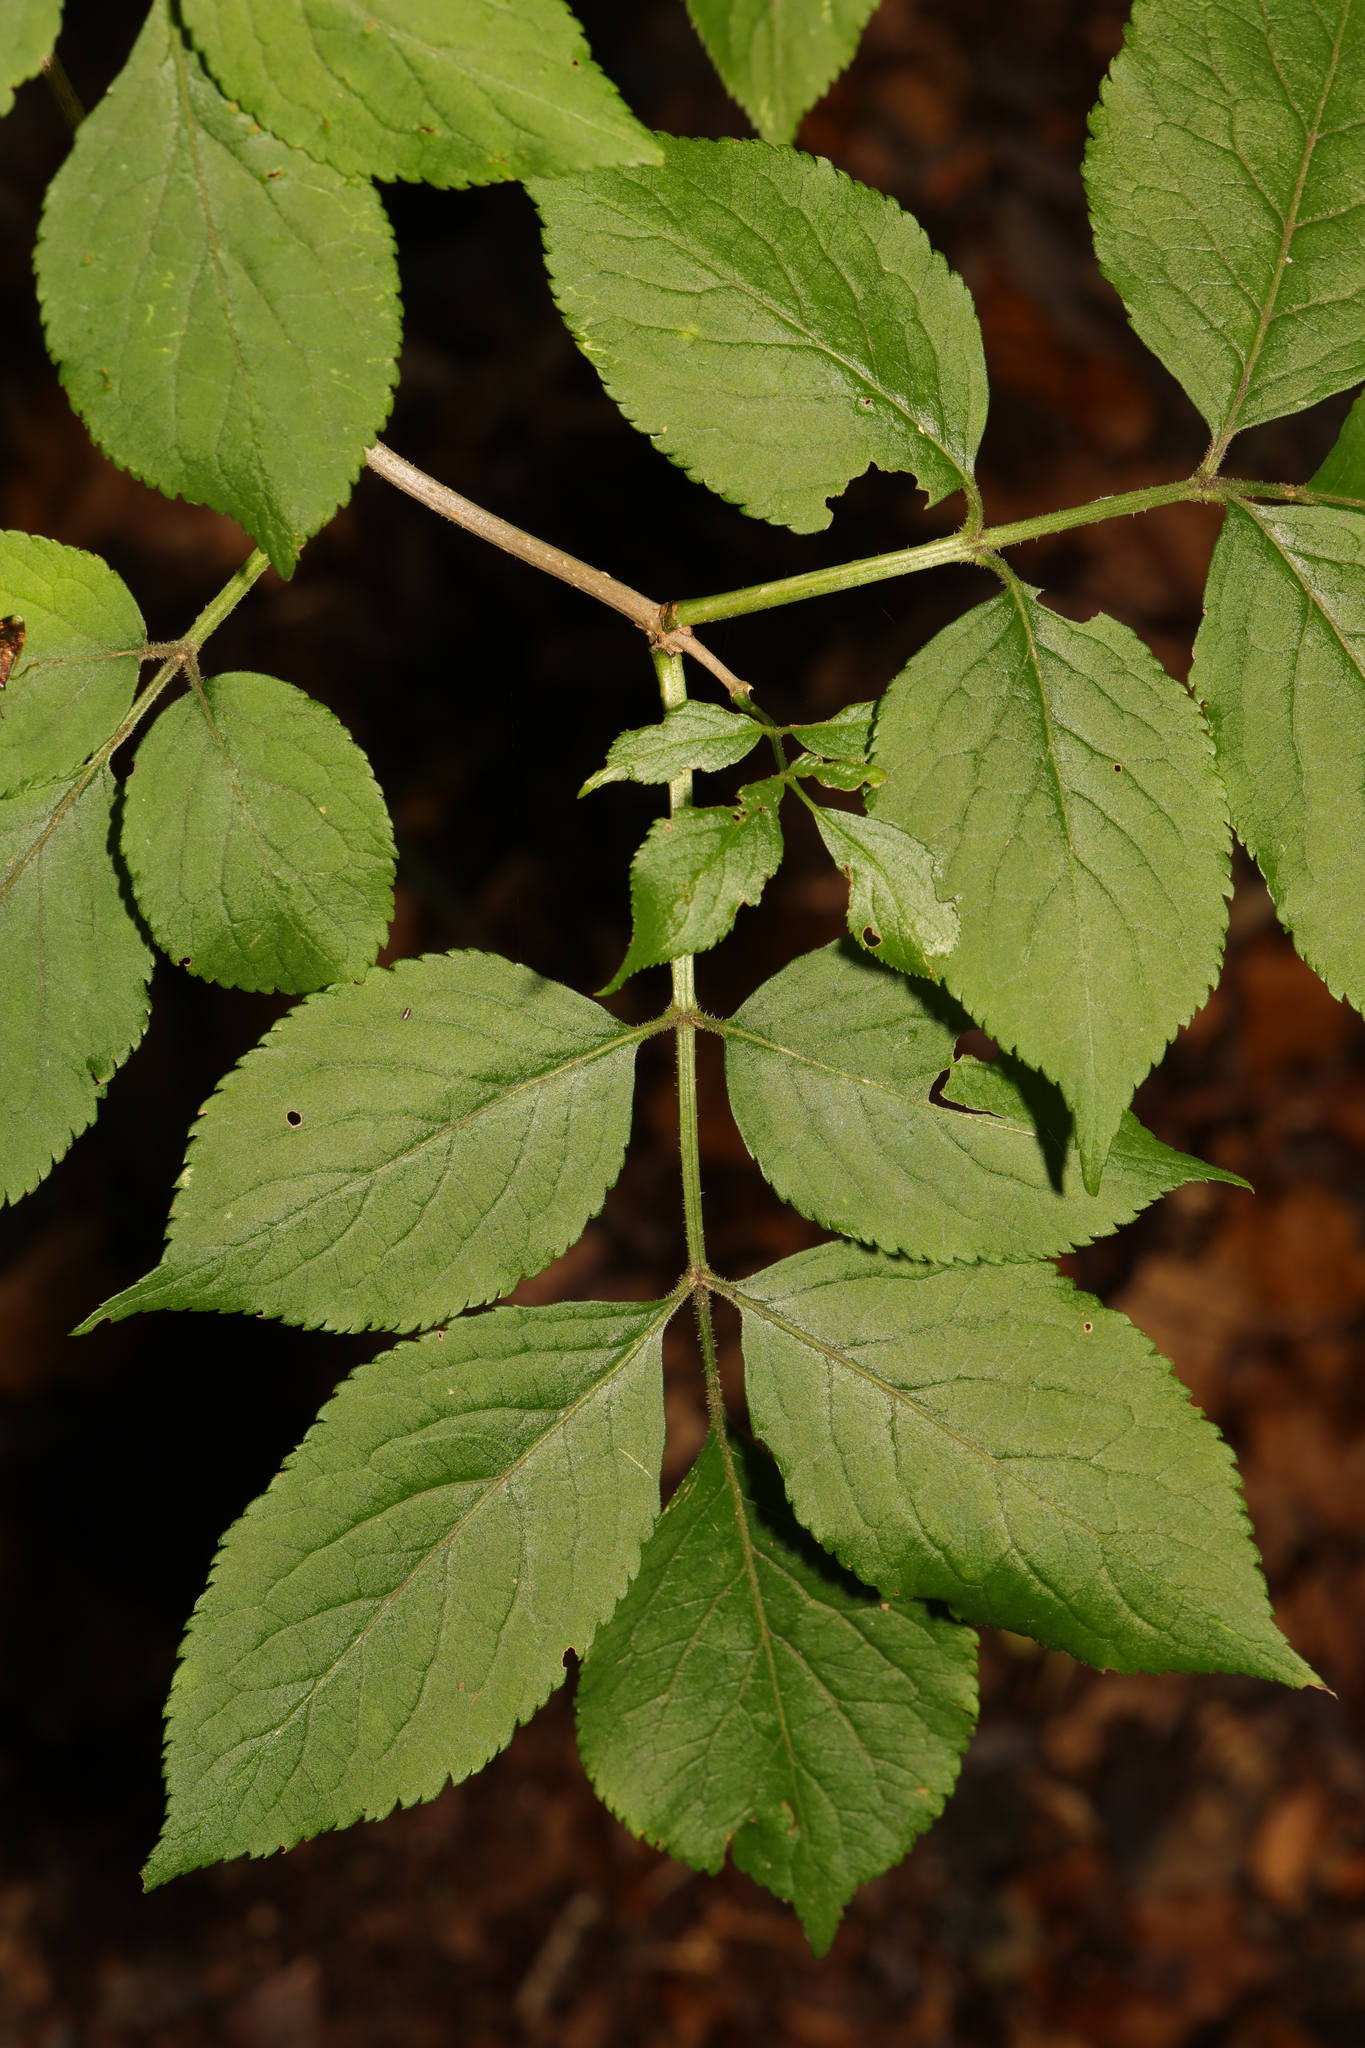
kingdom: Plantae
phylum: Tracheophyta
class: Magnoliopsida
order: Dipsacales
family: Viburnaceae
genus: Sambucus
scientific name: Sambucus nigra
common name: Elder
